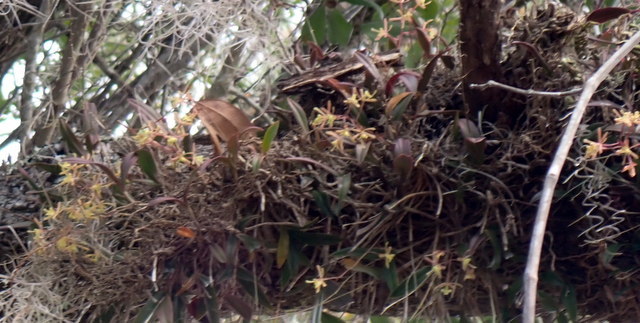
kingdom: Plantae
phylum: Tracheophyta
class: Liliopsida
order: Asparagales
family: Orchidaceae
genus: Epidendrum
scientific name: Epidendrum conopseum
